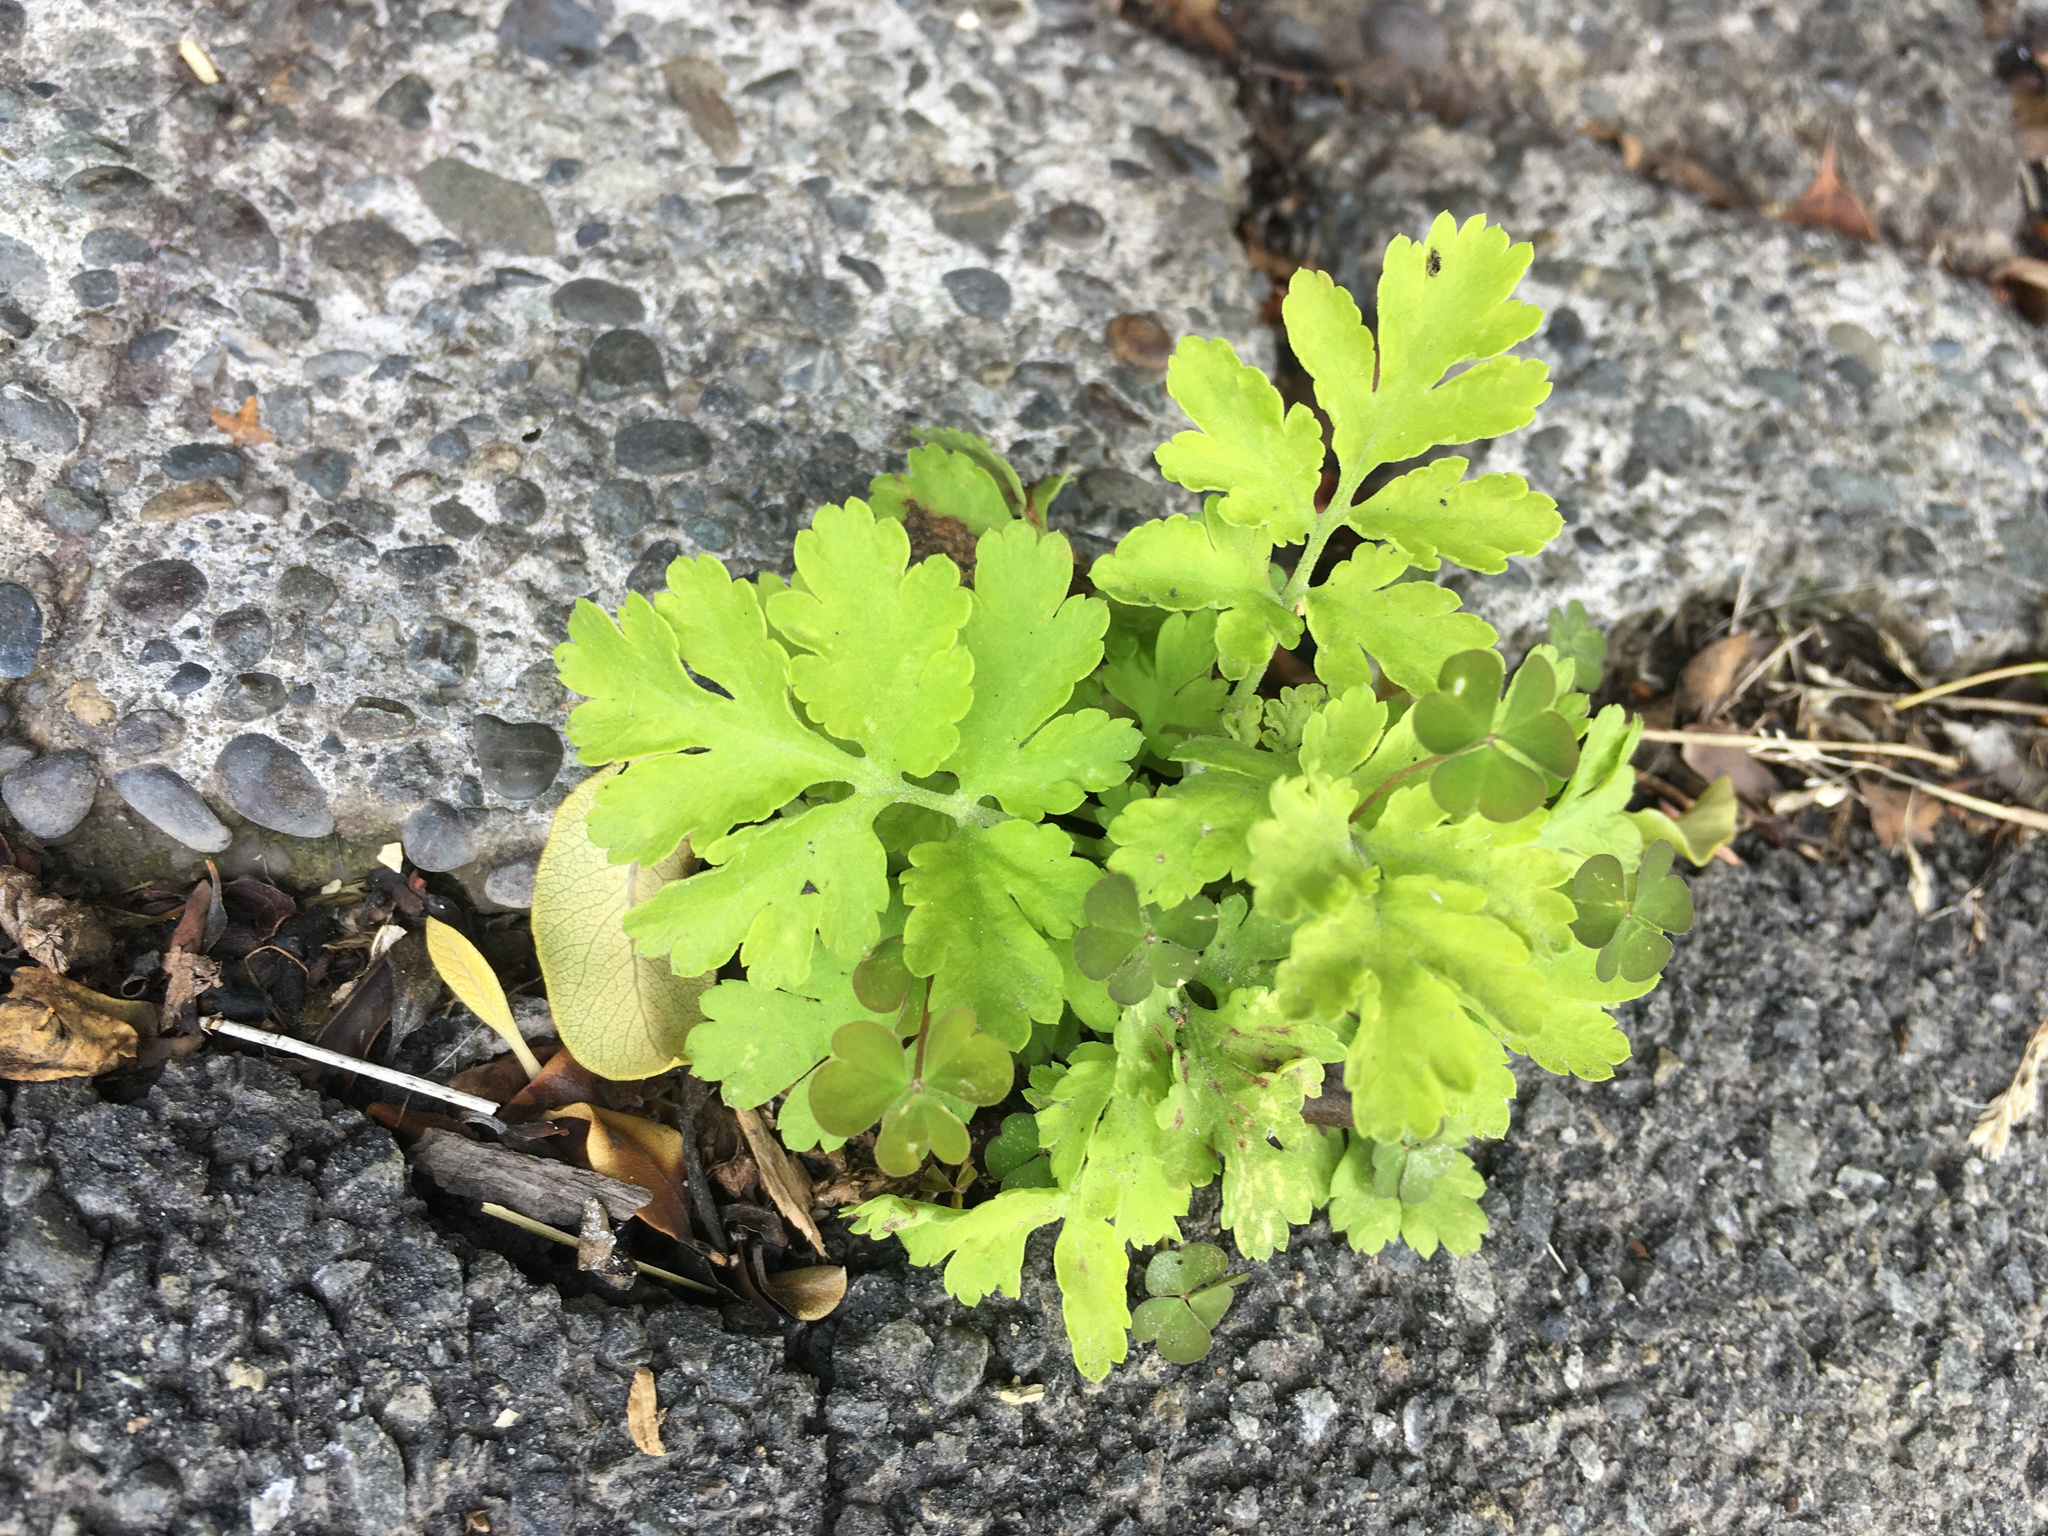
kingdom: Plantae
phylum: Tracheophyta
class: Magnoliopsida
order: Asterales
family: Asteraceae
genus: Tanacetum
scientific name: Tanacetum parthenium
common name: Feverfew
